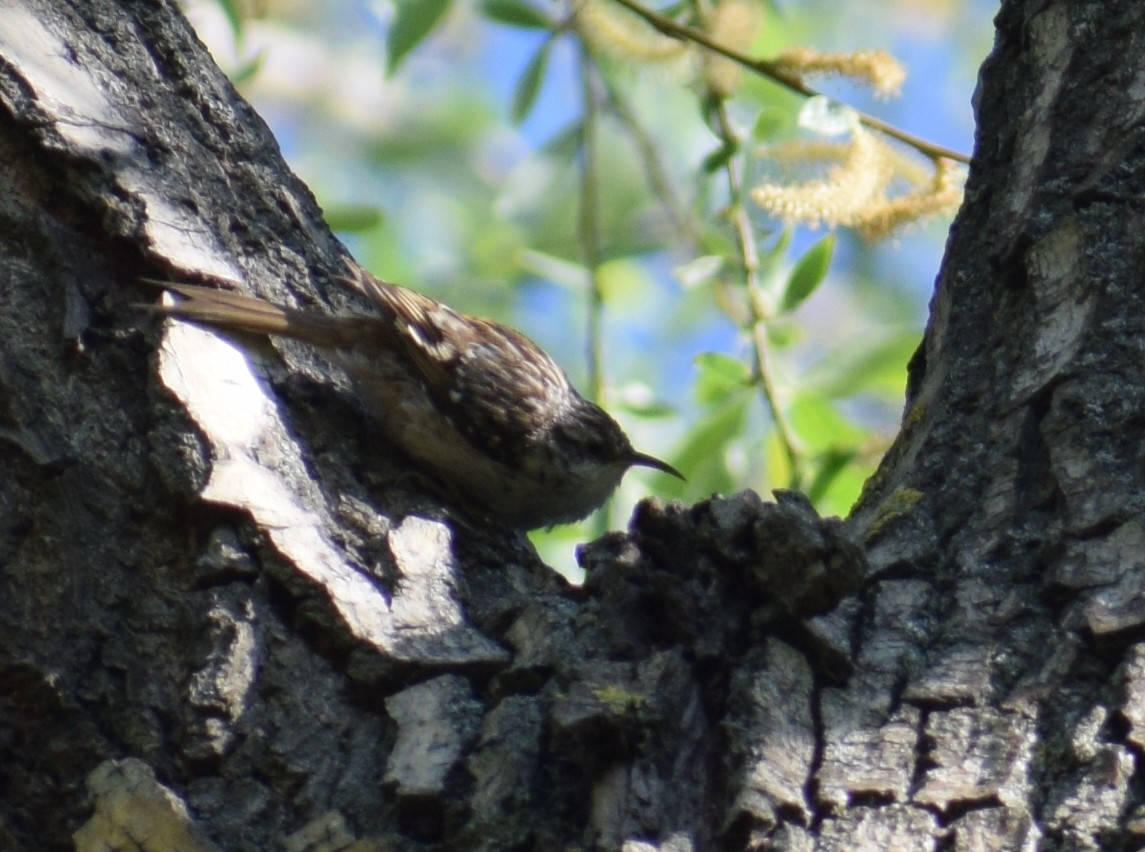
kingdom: Animalia
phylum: Chordata
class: Aves
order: Passeriformes
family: Certhiidae
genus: Certhia
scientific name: Certhia brachydactyla
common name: Short-toed treecreeper
